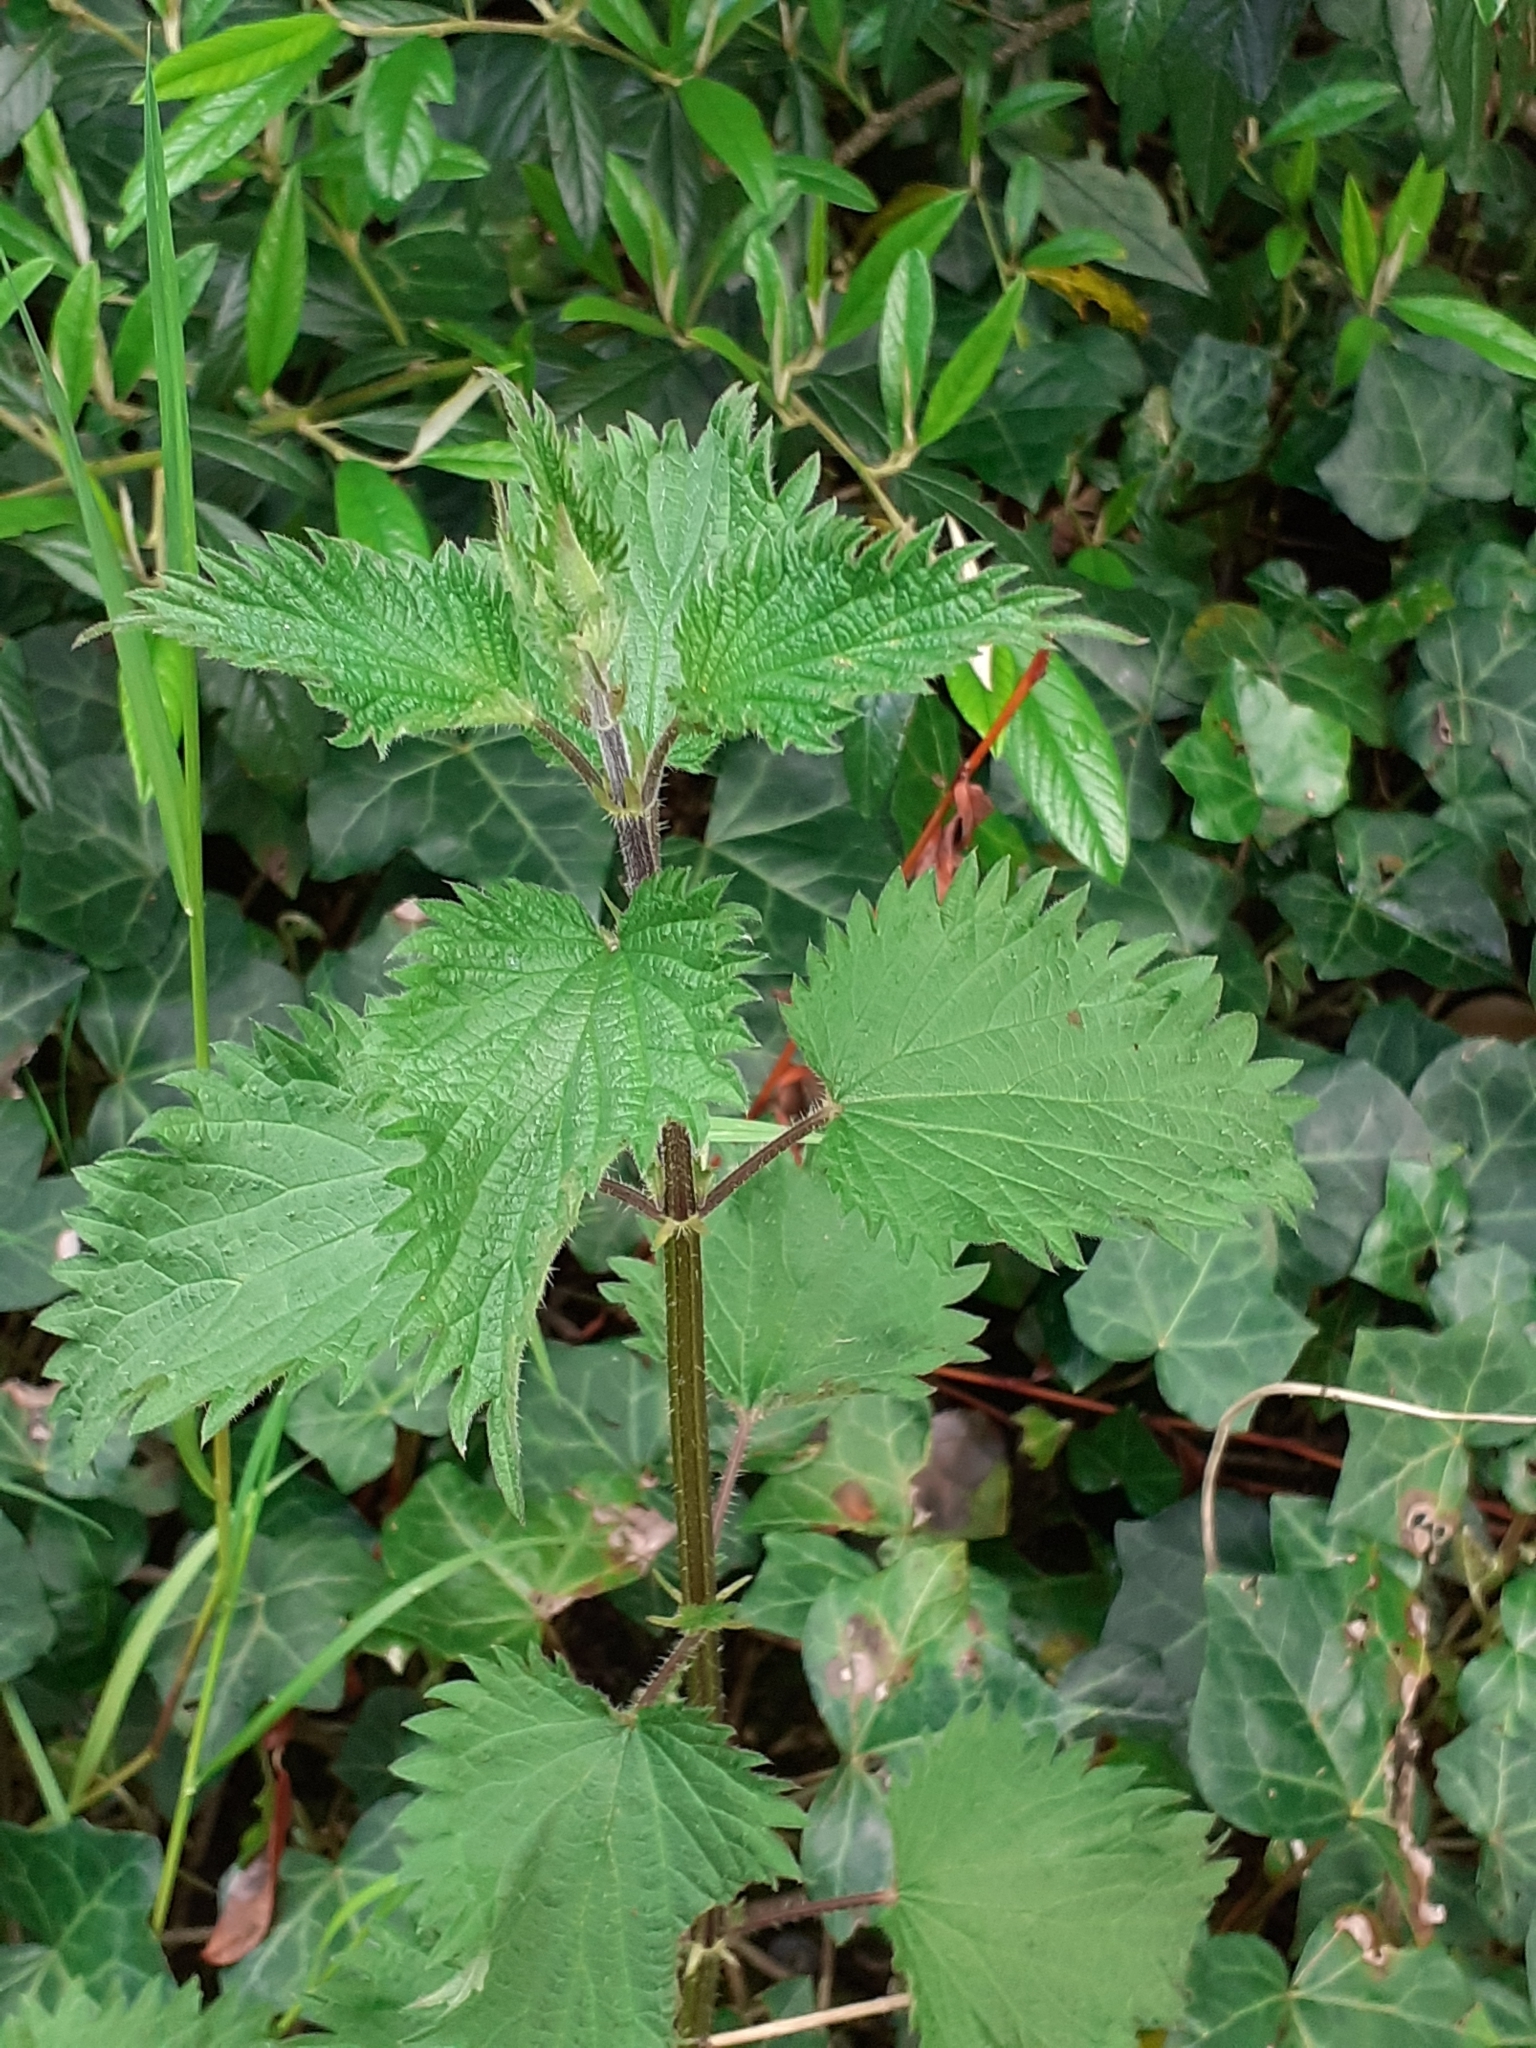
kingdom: Plantae
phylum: Tracheophyta
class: Magnoliopsida
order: Rosales
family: Urticaceae
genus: Urtica
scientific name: Urtica dioica
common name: Common nettle
